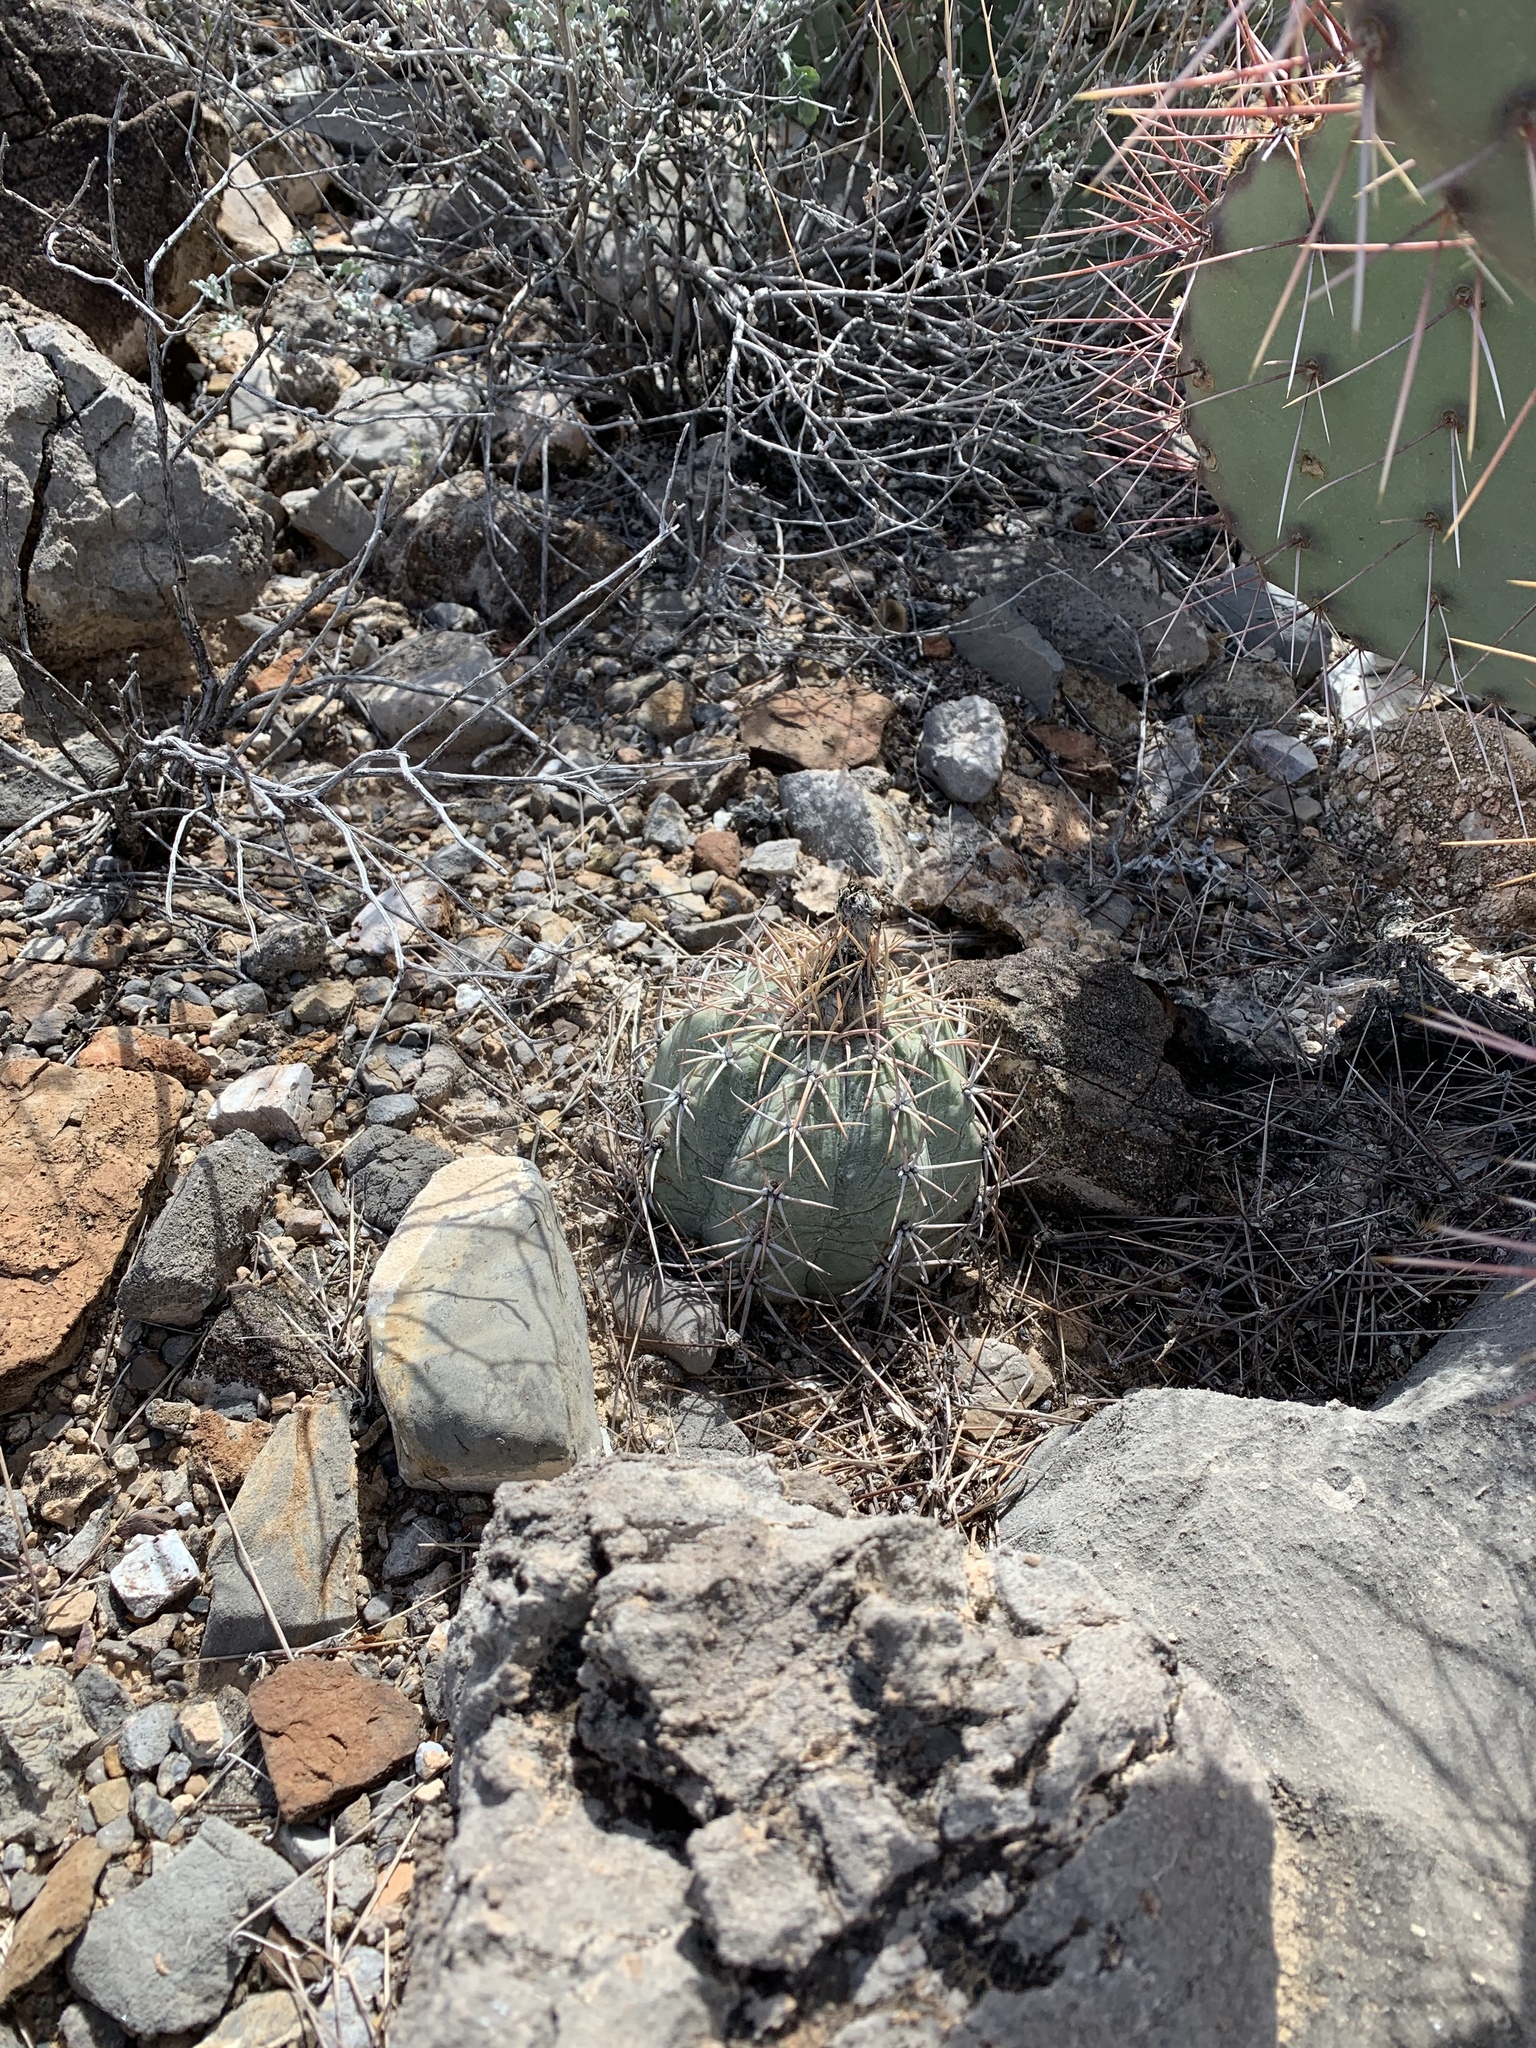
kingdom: Plantae
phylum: Tracheophyta
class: Magnoliopsida
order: Caryophyllales
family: Cactaceae
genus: Echinocactus
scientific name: Echinocactus horizonthalonius
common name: Devilshead
